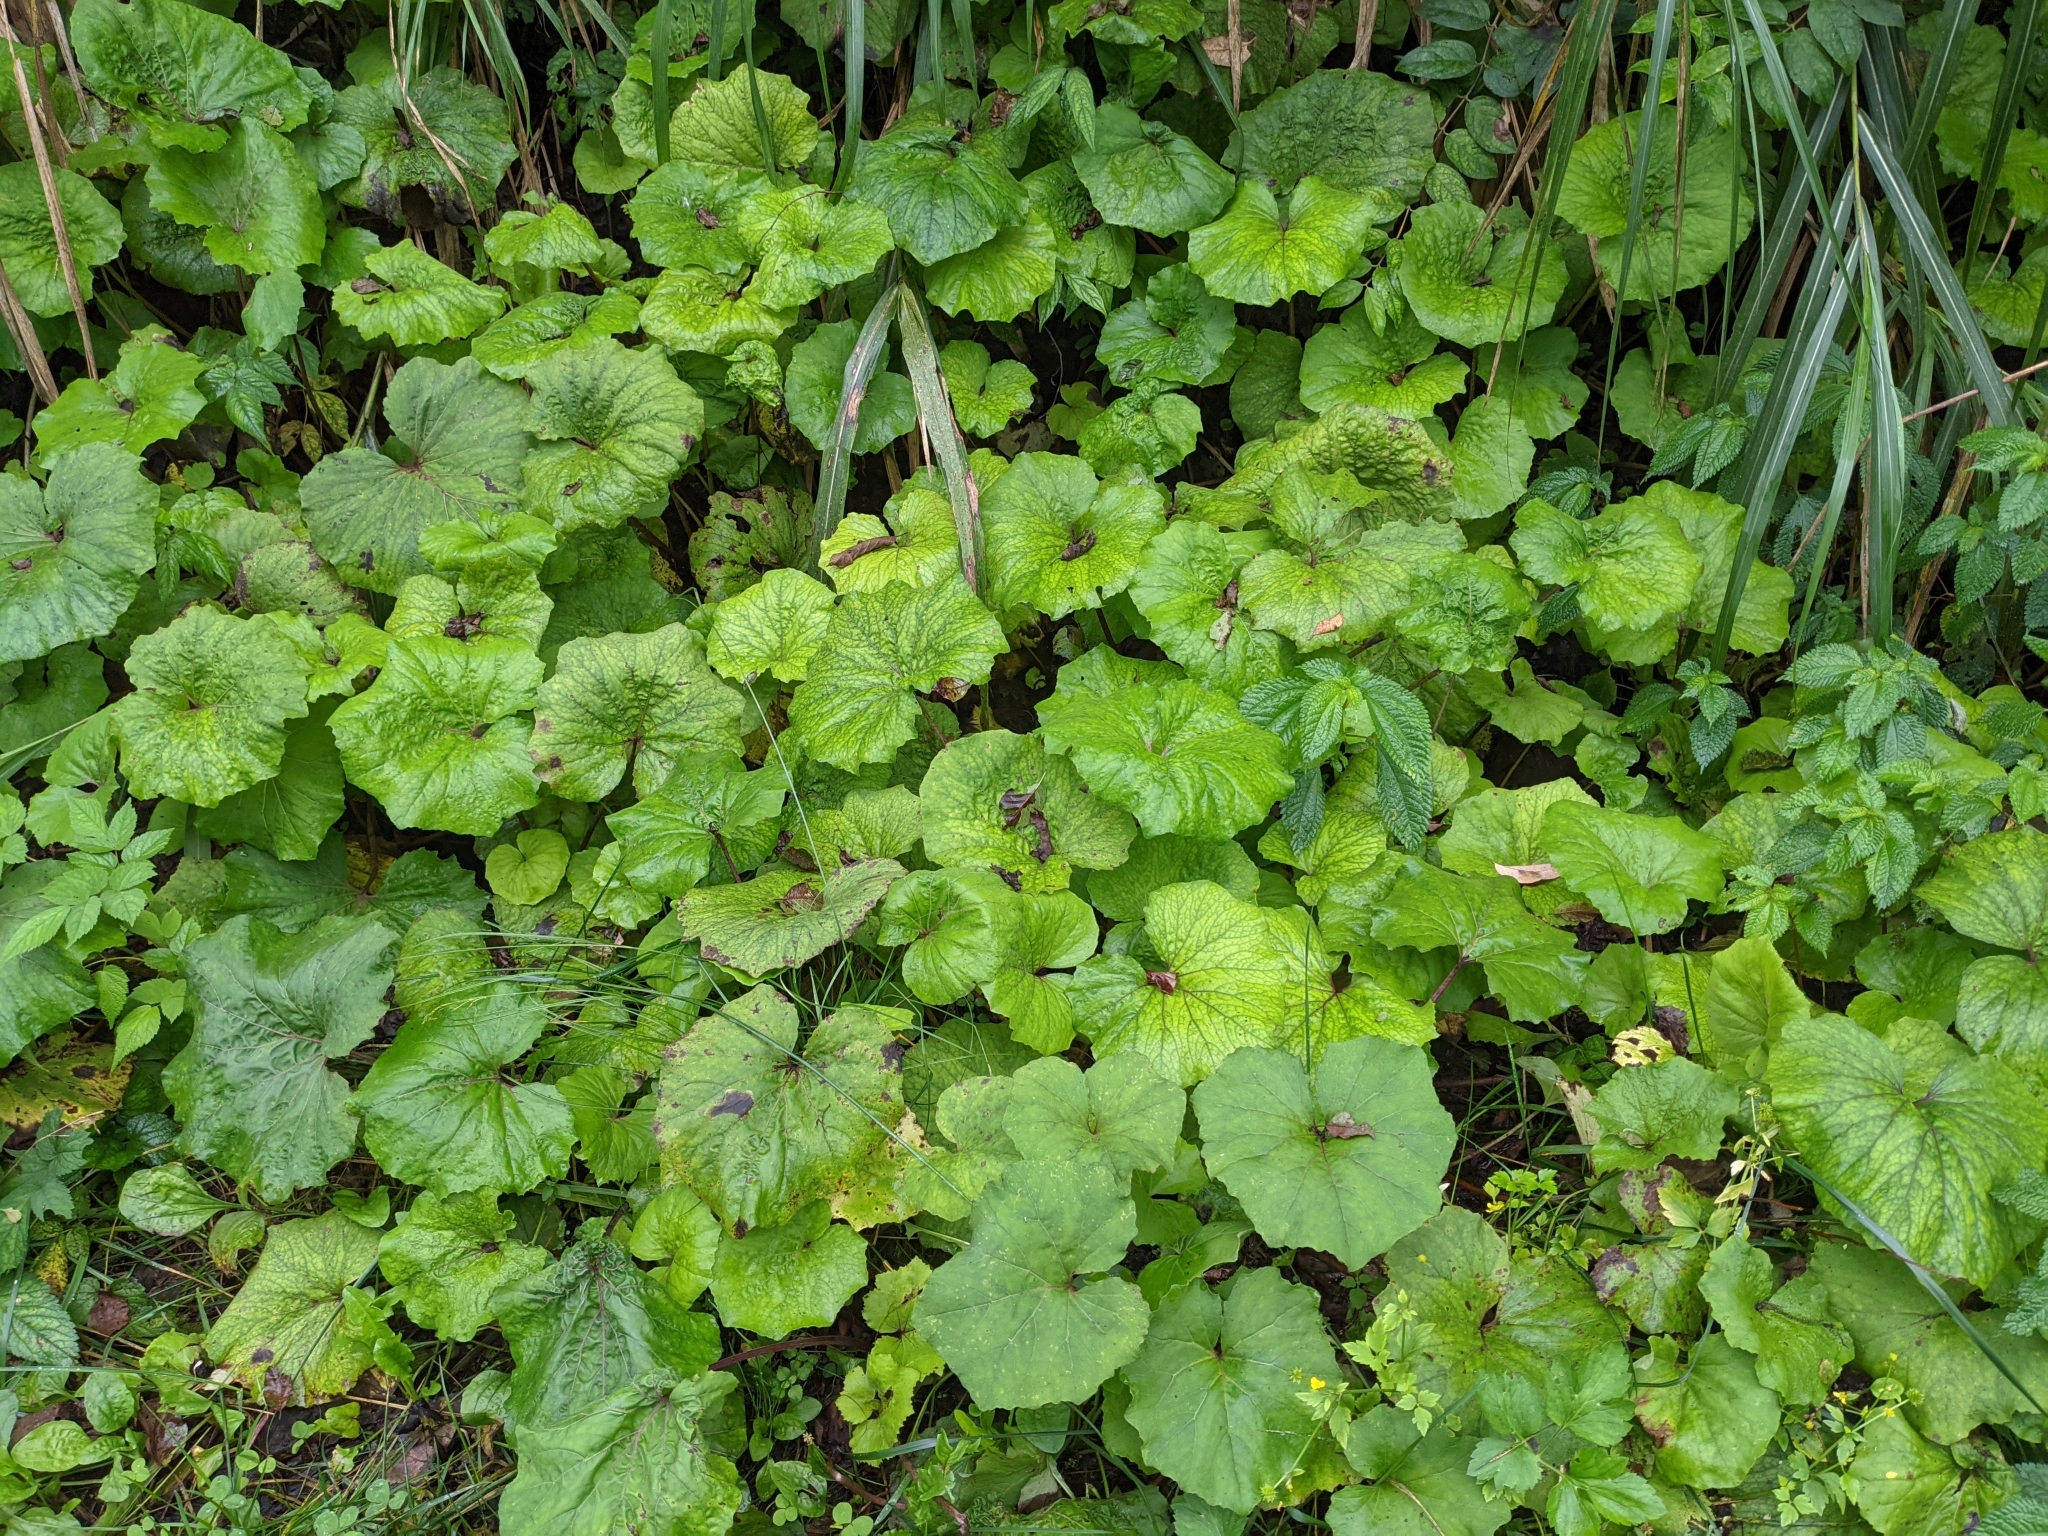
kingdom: Plantae
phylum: Tracheophyta
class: Magnoliopsida
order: Asterales
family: Asteraceae
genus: Petasites
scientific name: Petasites formosanus
